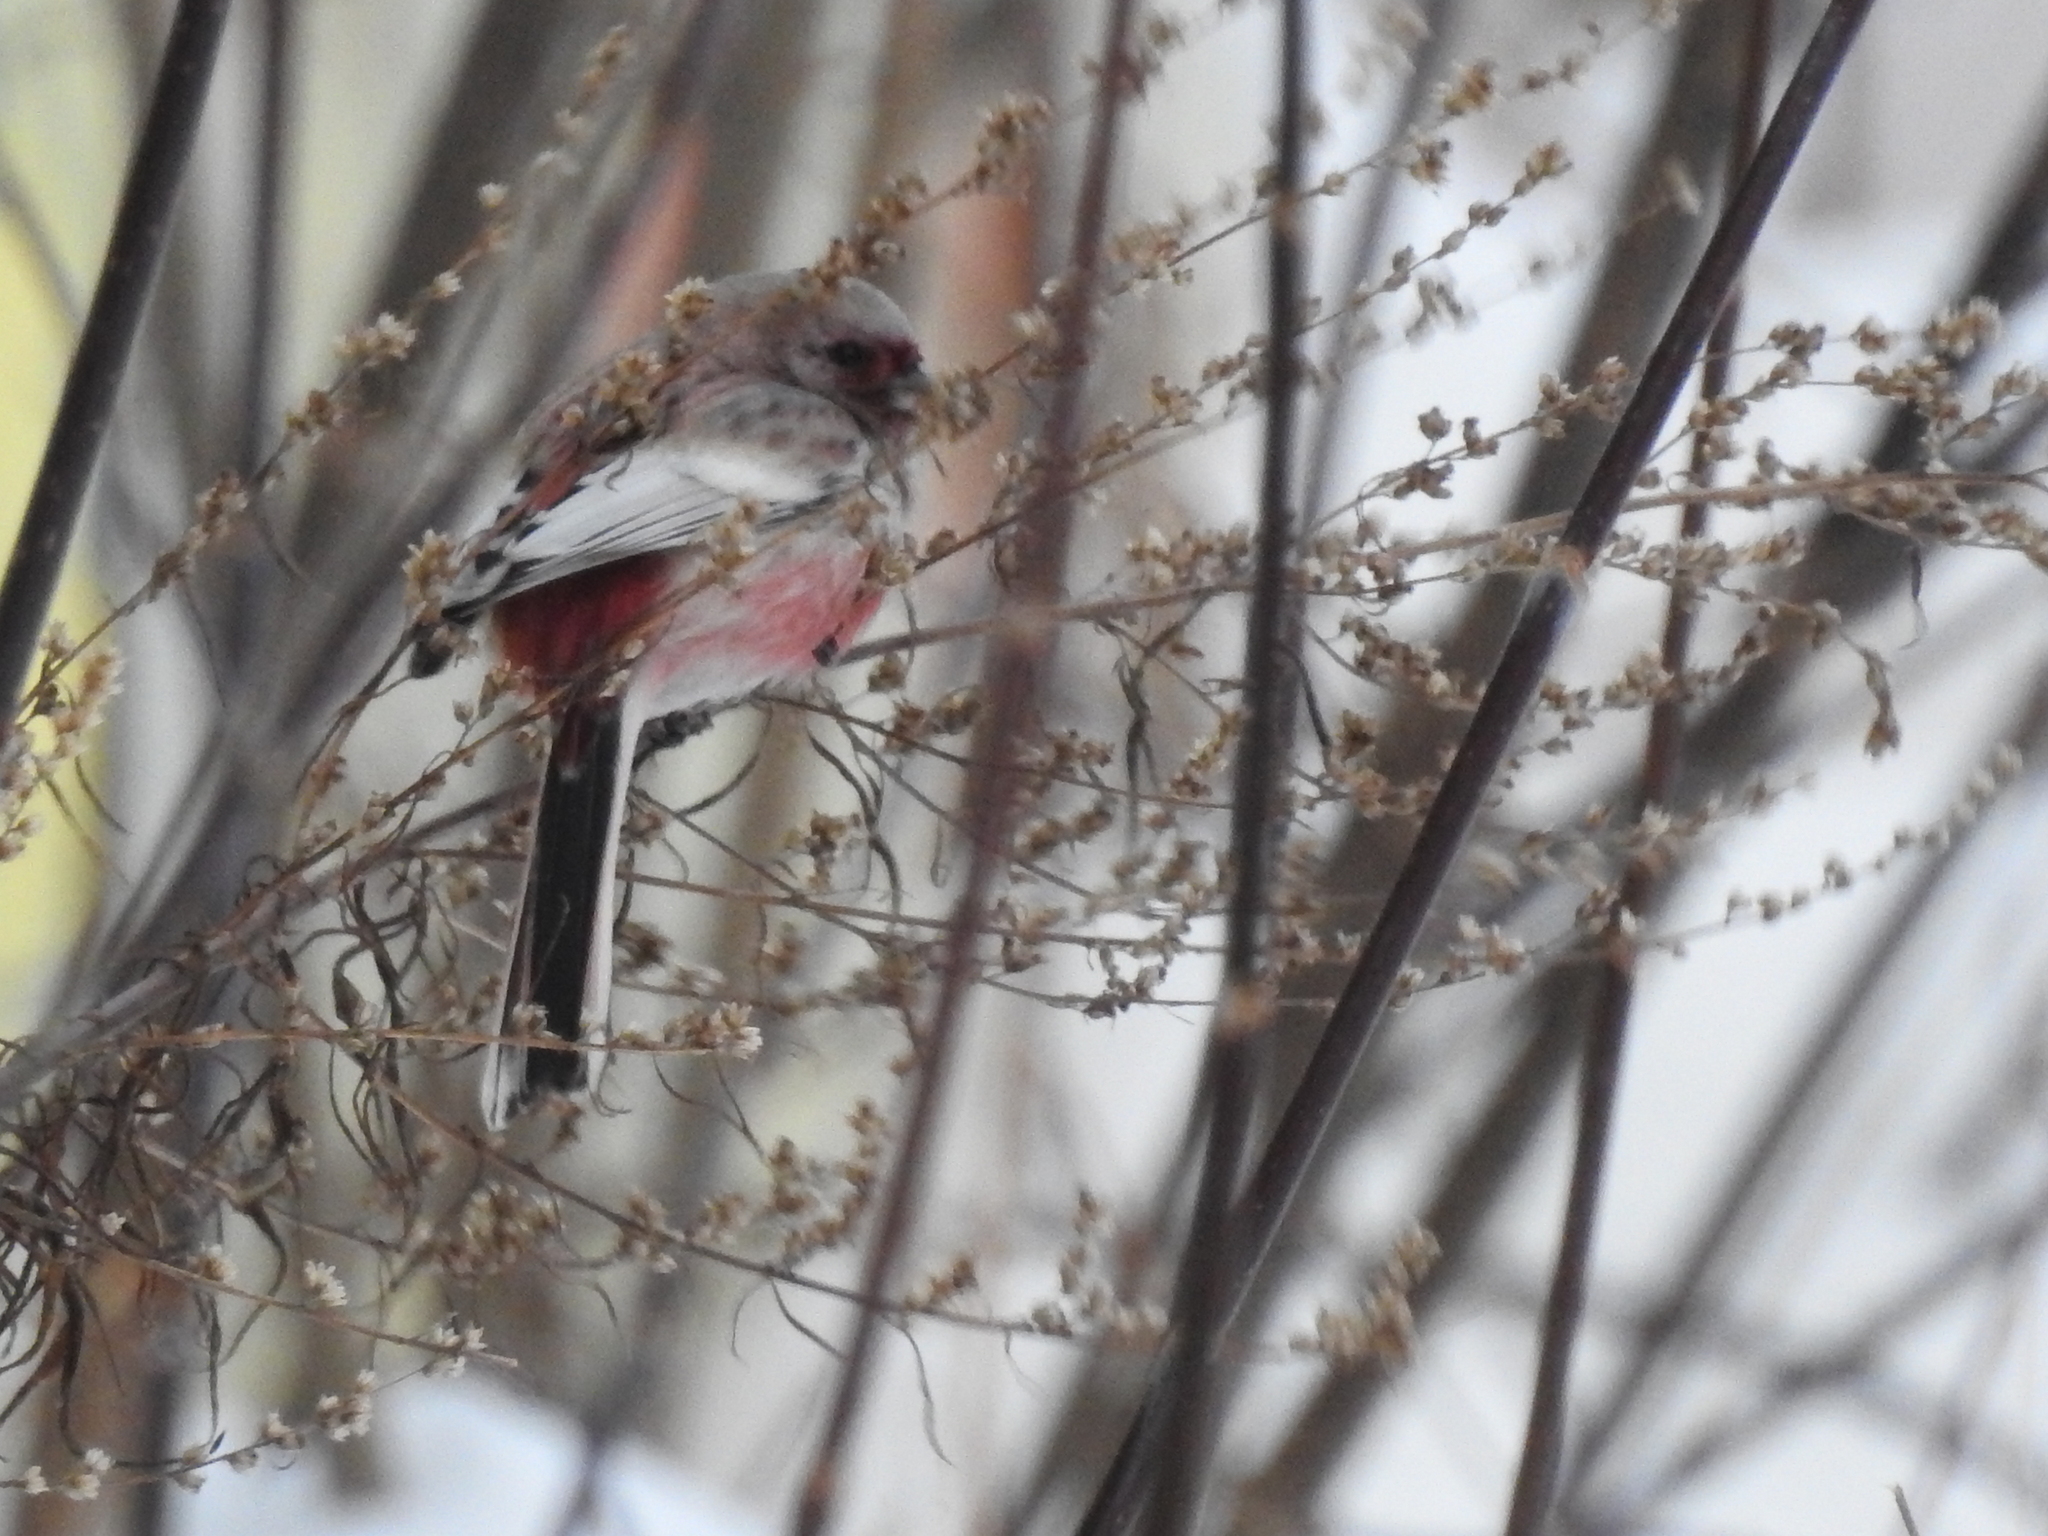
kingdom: Animalia
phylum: Chordata
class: Aves
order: Passeriformes
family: Fringillidae
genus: Carpodacus
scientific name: Carpodacus sibiricus
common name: Long-tailed rosefinch
